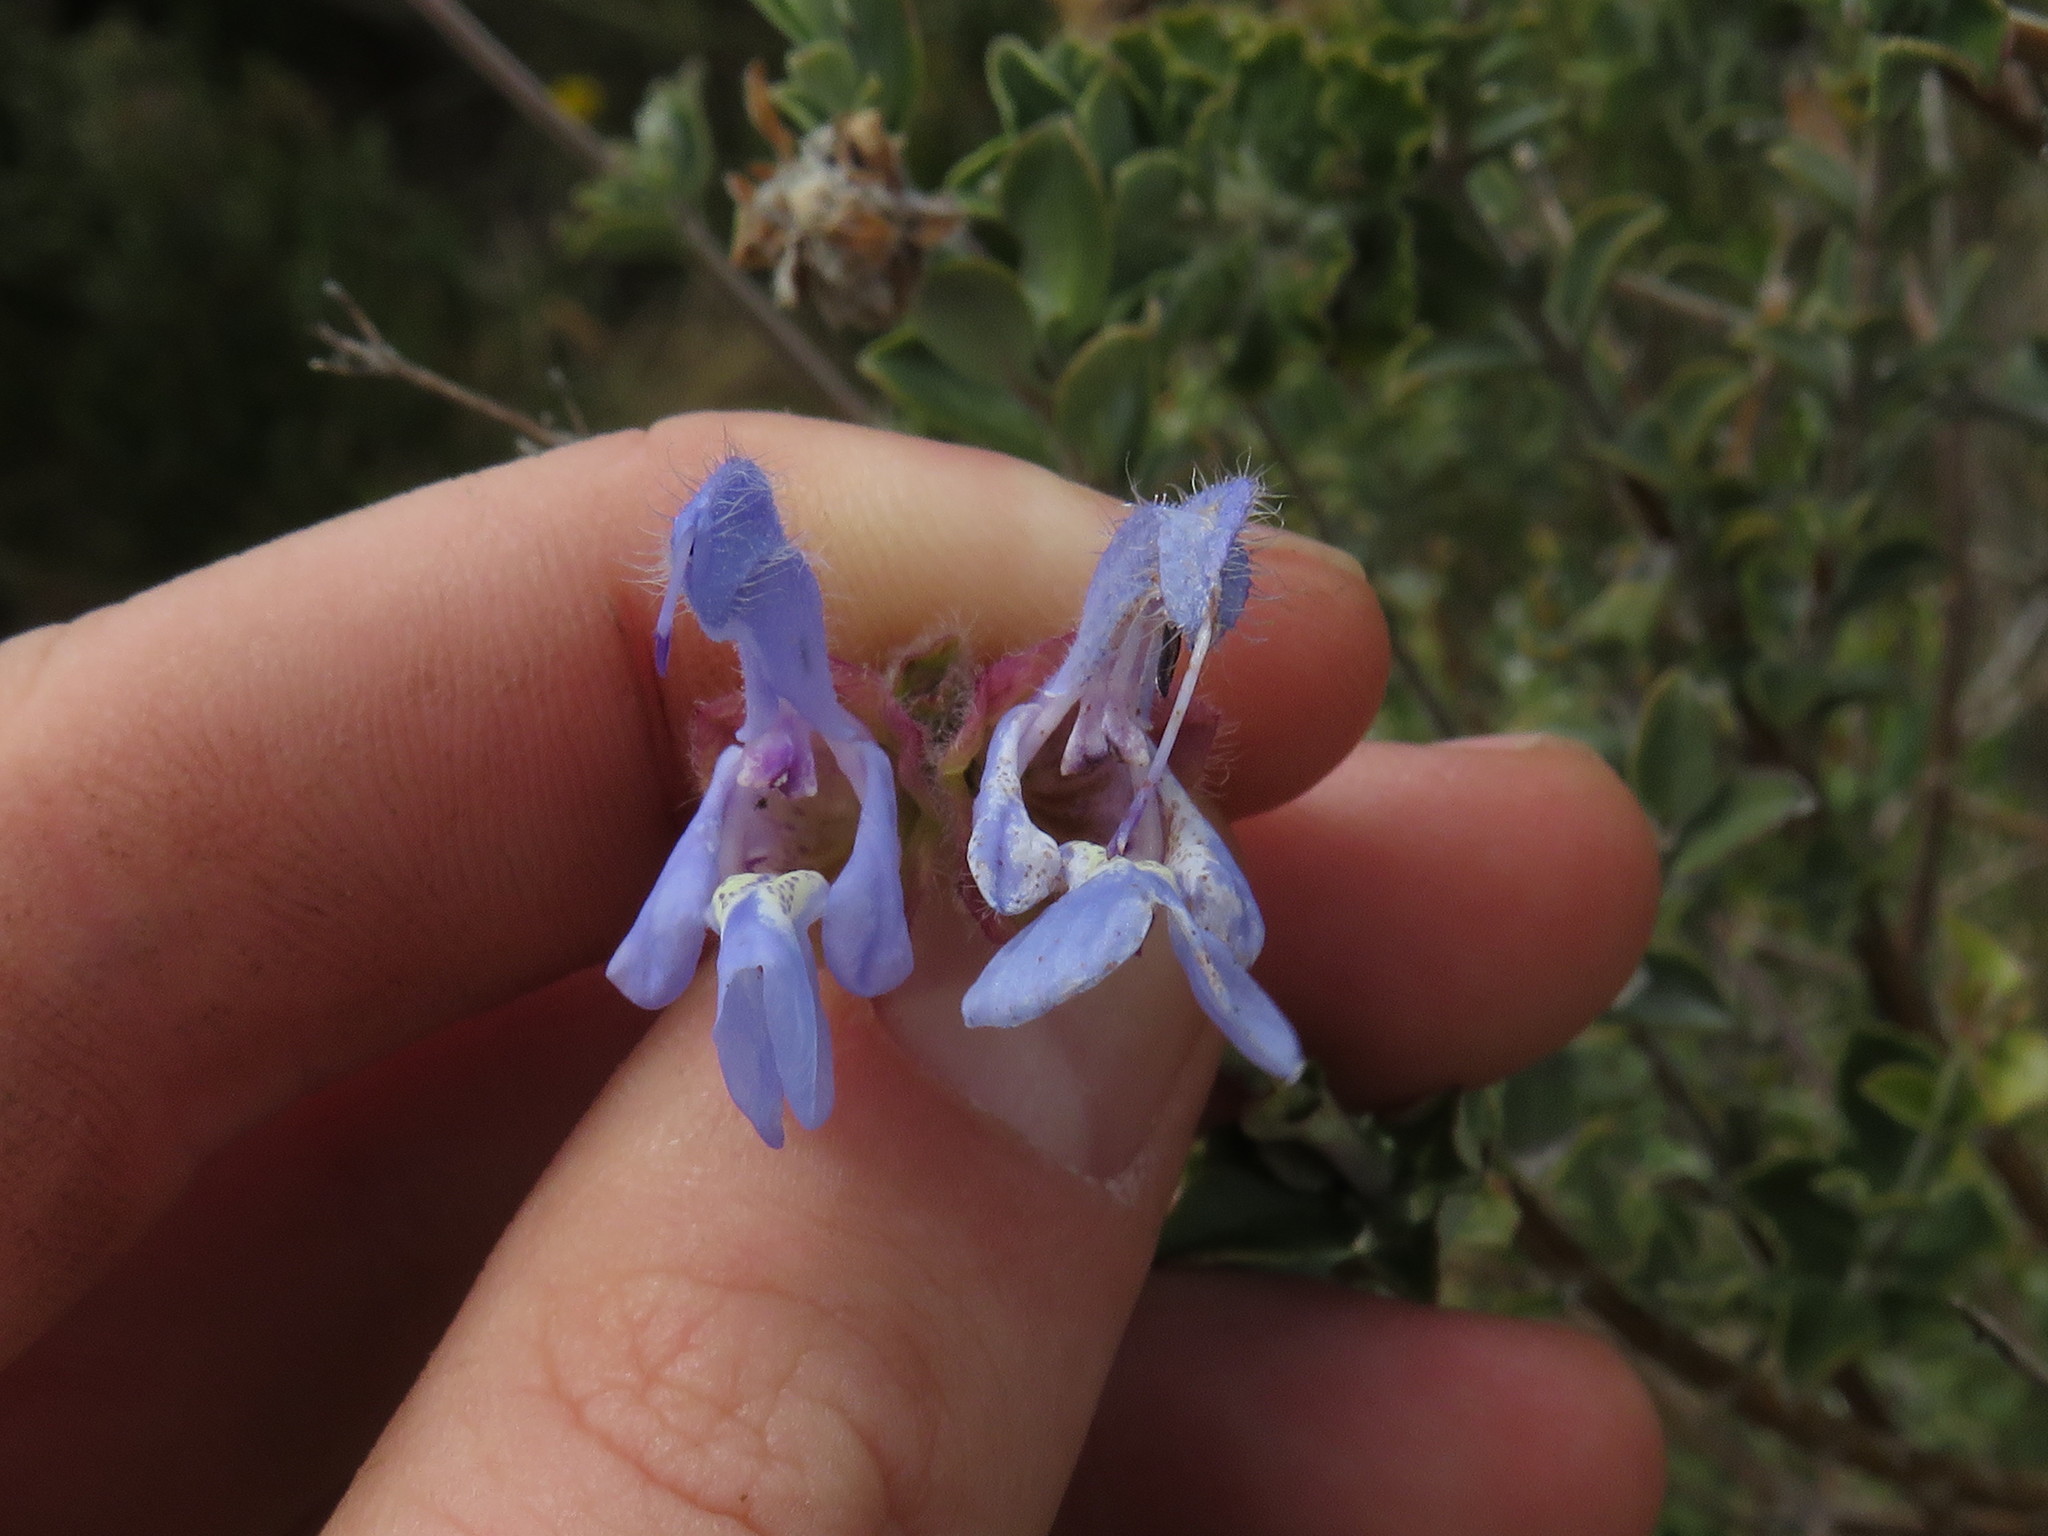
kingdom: Plantae
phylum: Tracheophyta
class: Magnoliopsida
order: Lamiales
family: Lamiaceae
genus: Salvia
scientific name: Salvia chamelaeagnea
